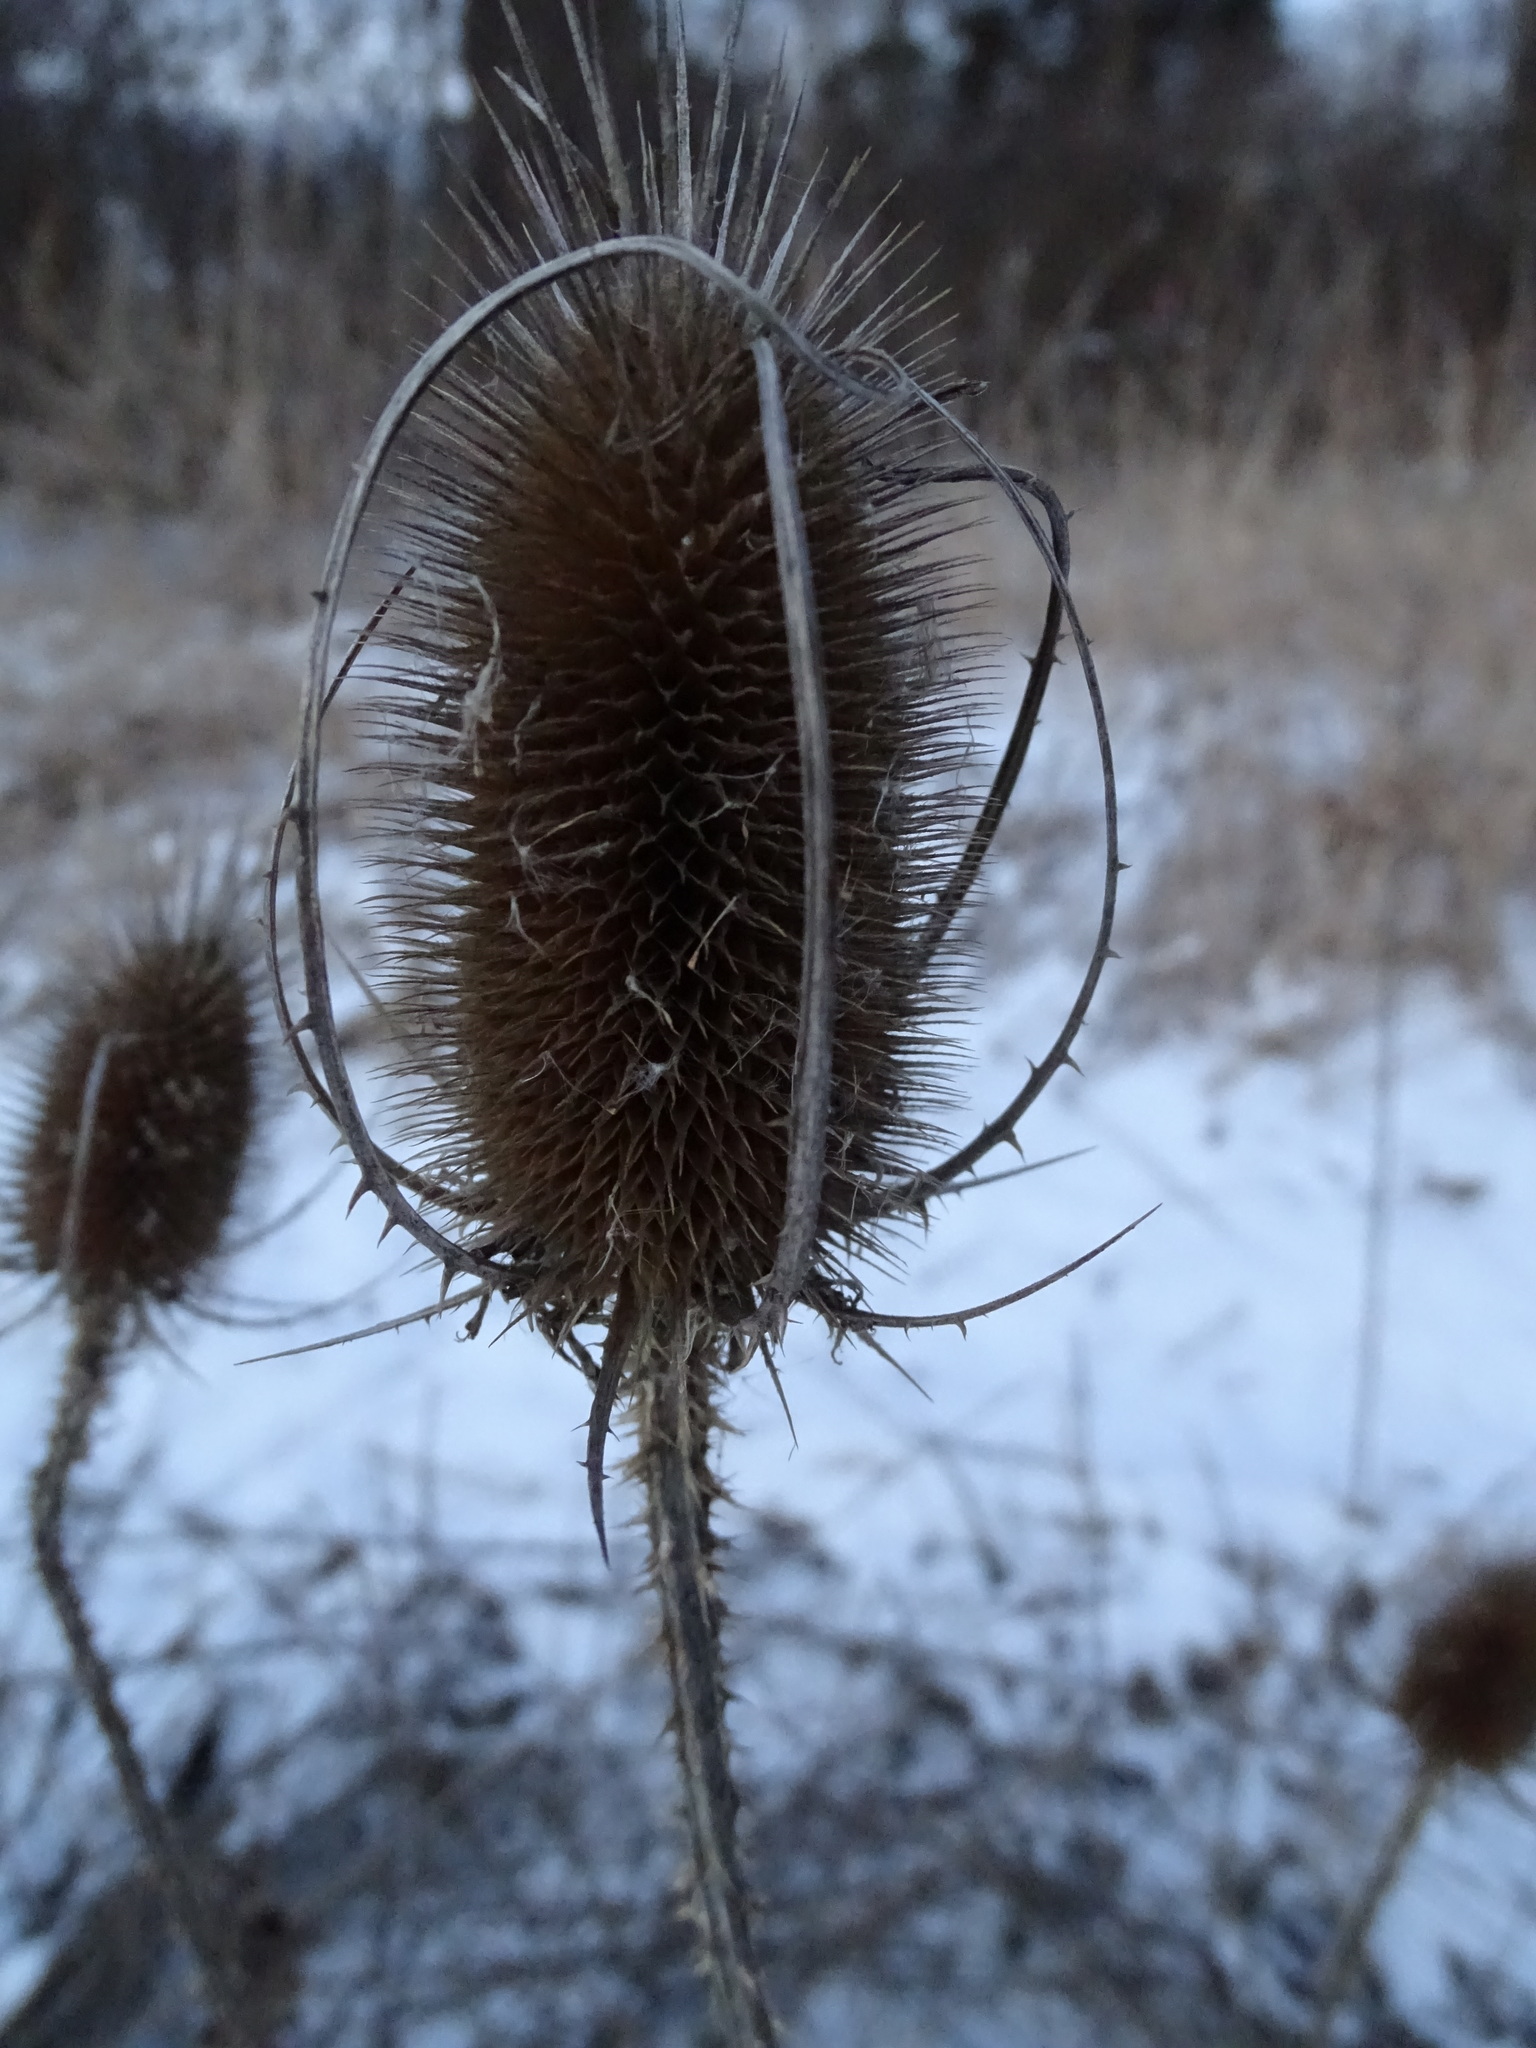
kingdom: Plantae
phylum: Tracheophyta
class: Magnoliopsida
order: Dipsacales
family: Caprifoliaceae
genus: Dipsacus
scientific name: Dipsacus fullonum
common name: Teasel
